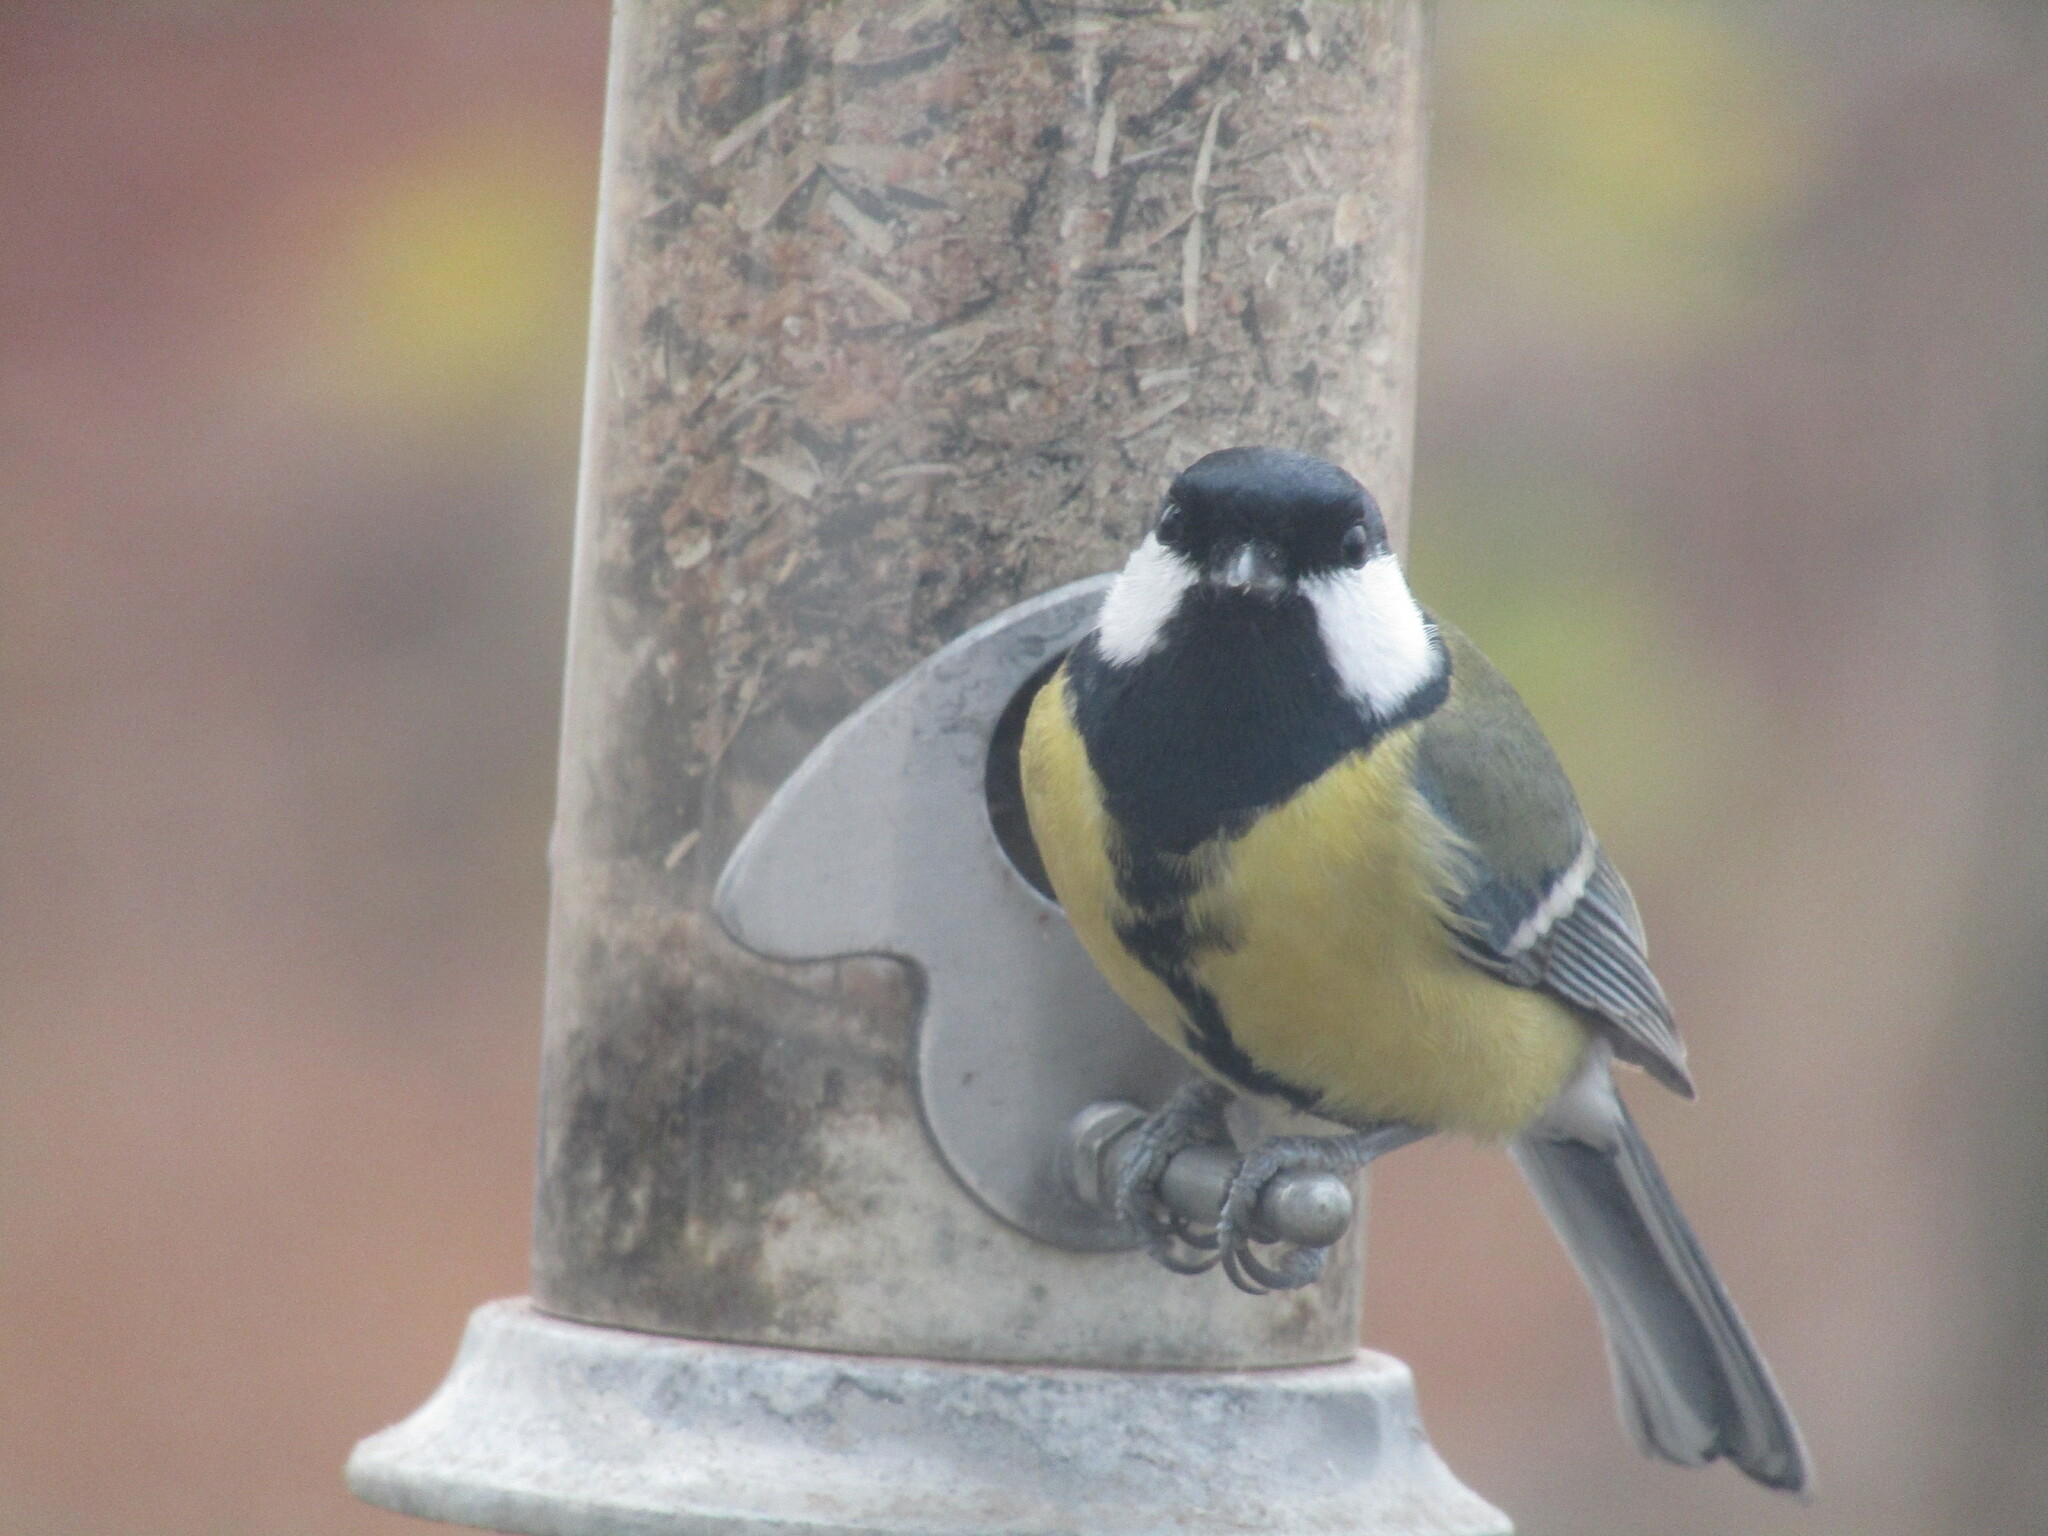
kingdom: Animalia
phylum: Chordata
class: Aves
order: Passeriformes
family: Paridae
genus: Parus
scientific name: Parus major
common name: Great tit
